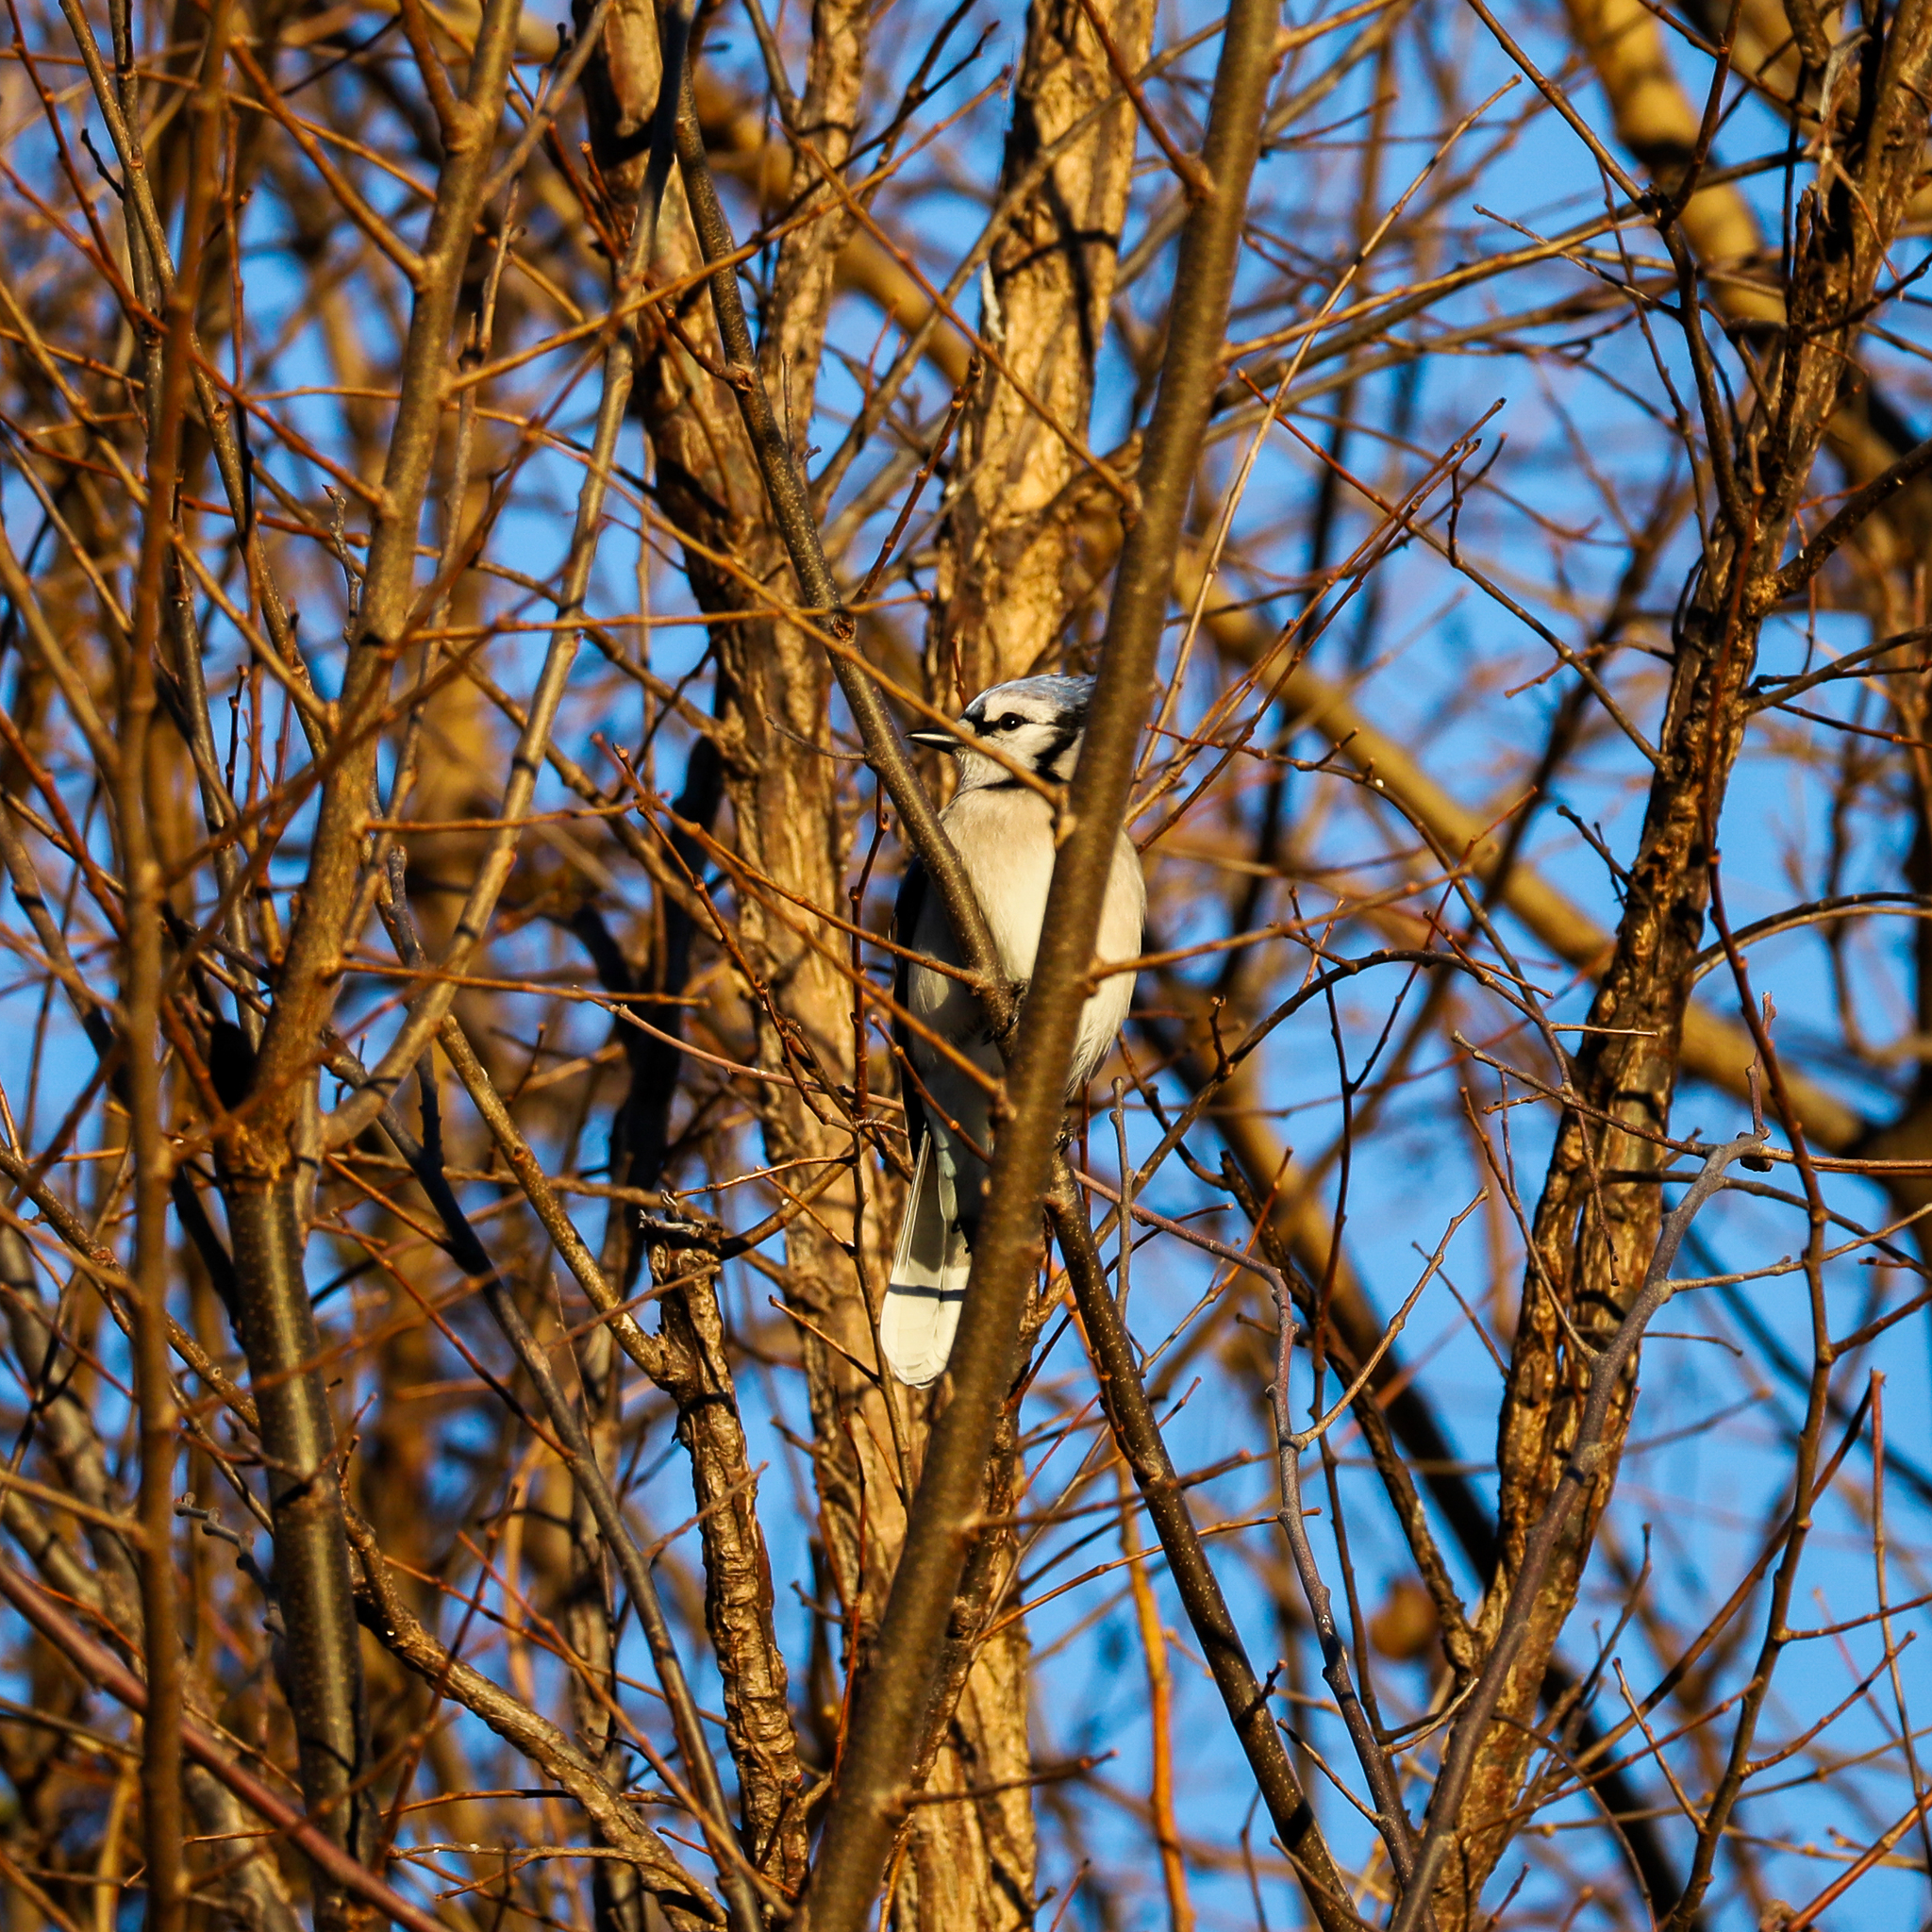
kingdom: Animalia
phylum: Chordata
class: Aves
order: Passeriformes
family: Corvidae
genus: Cyanocitta
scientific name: Cyanocitta cristata
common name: Blue jay
